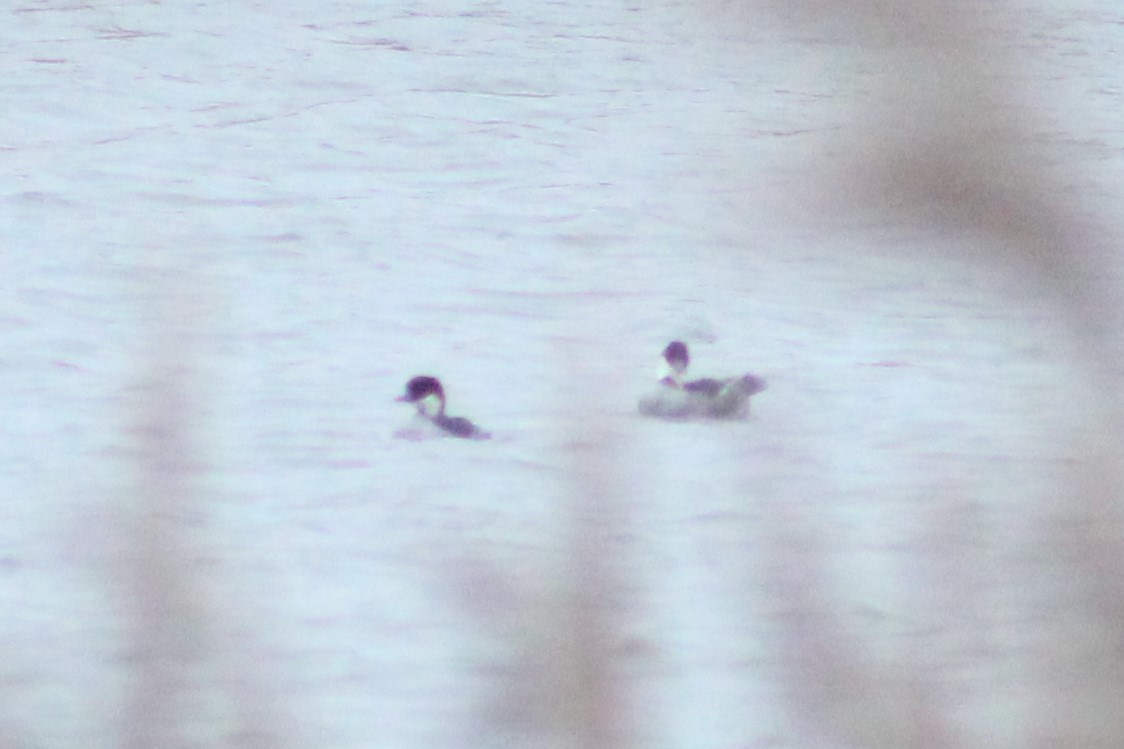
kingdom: Animalia
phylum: Chordata
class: Aves
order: Anseriformes
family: Anatidae
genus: Mergellus
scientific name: Mergellus albellus
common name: Smew
